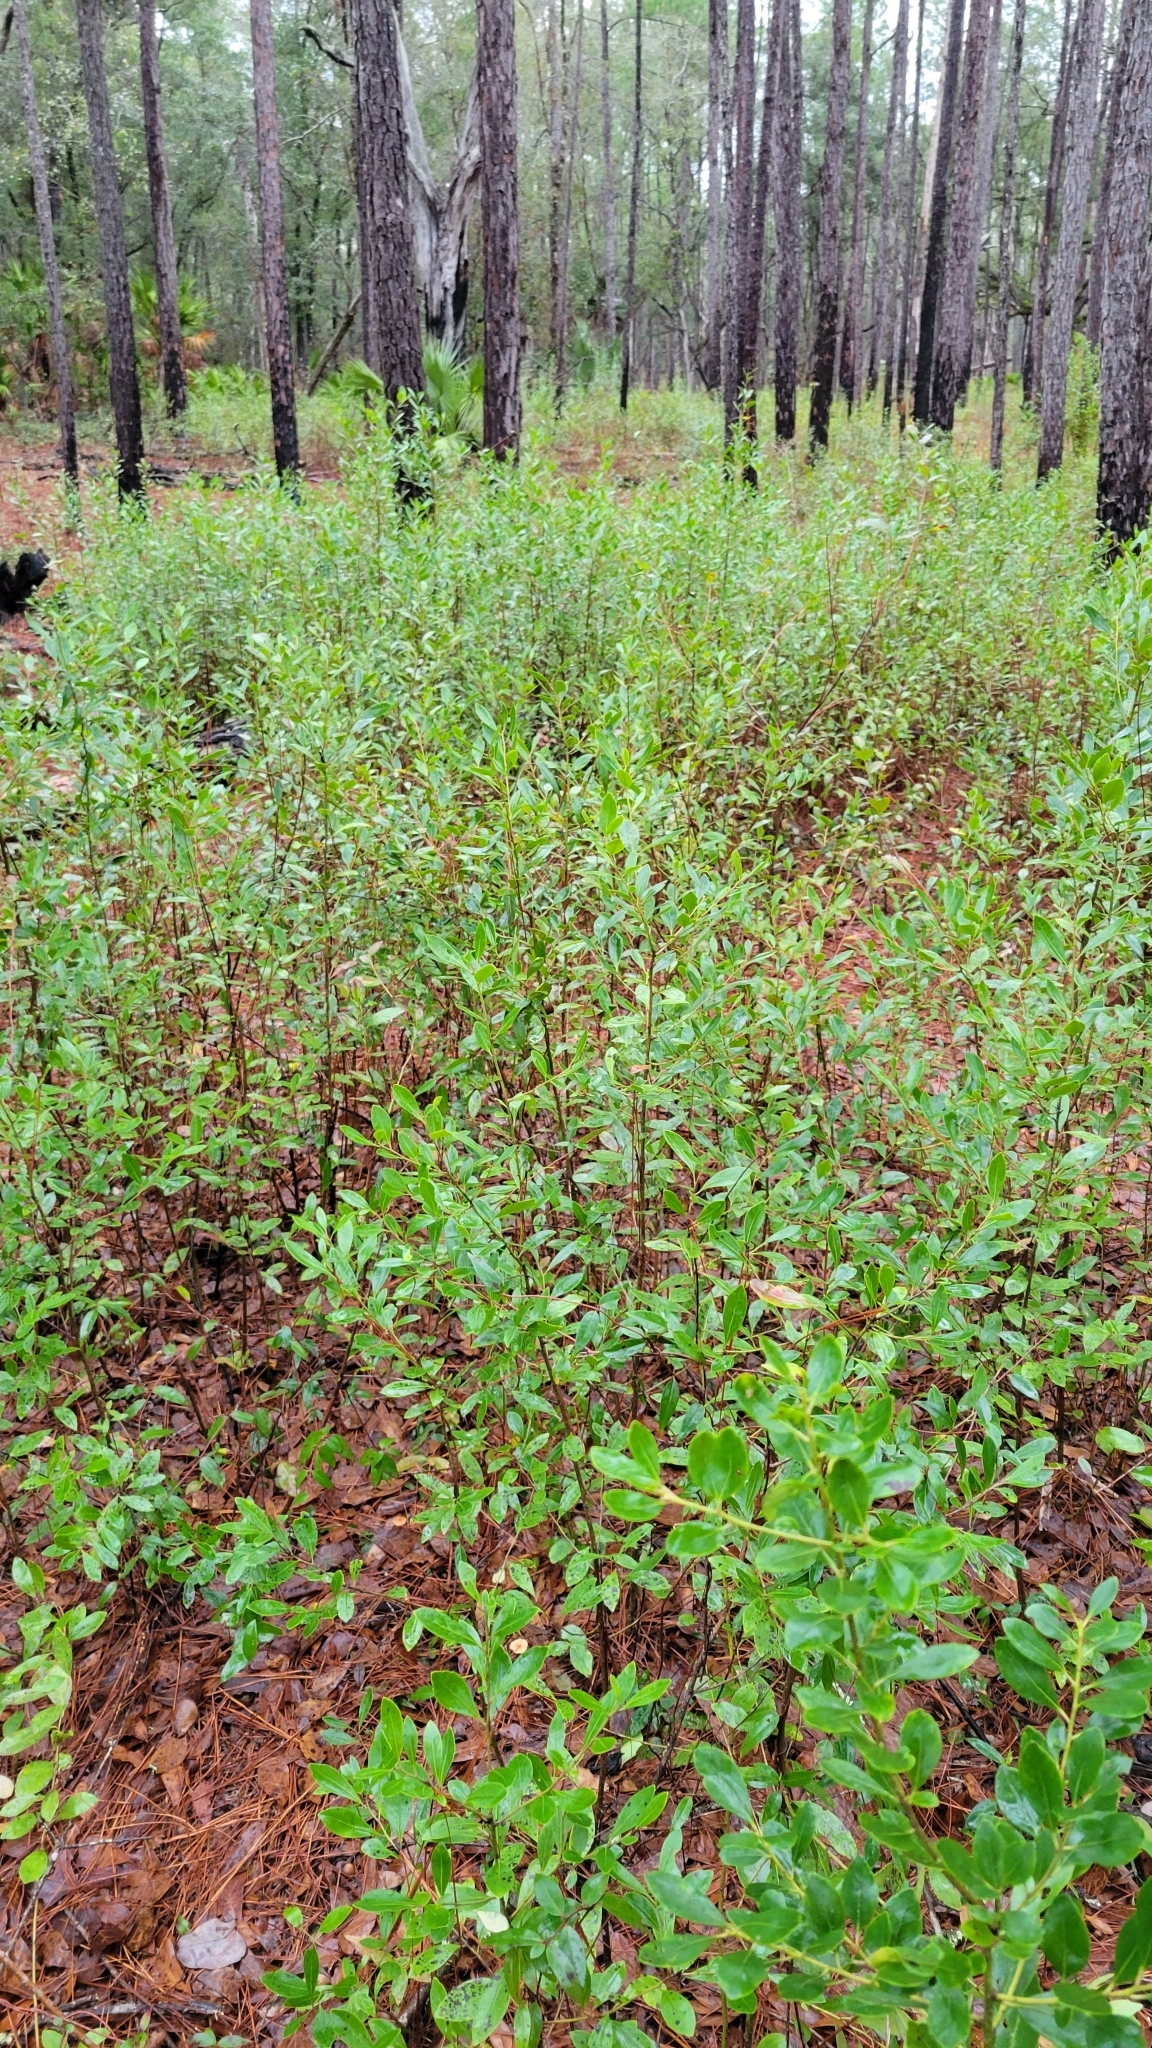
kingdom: Plantae
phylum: Tracheophyta
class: Magnoliopsida
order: Aquifoliales
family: Aquifoliaceae
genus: Ilex
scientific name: Ilex glabra
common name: Bitter gallberry
